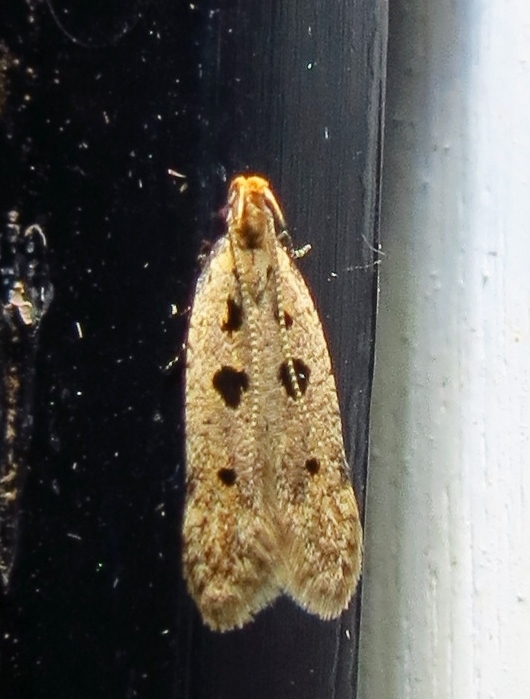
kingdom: Animalia
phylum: Arthropoda
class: Insecta
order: Lepidoptera
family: Gelechiidae
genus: Deltophora
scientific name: Deltophora sella
